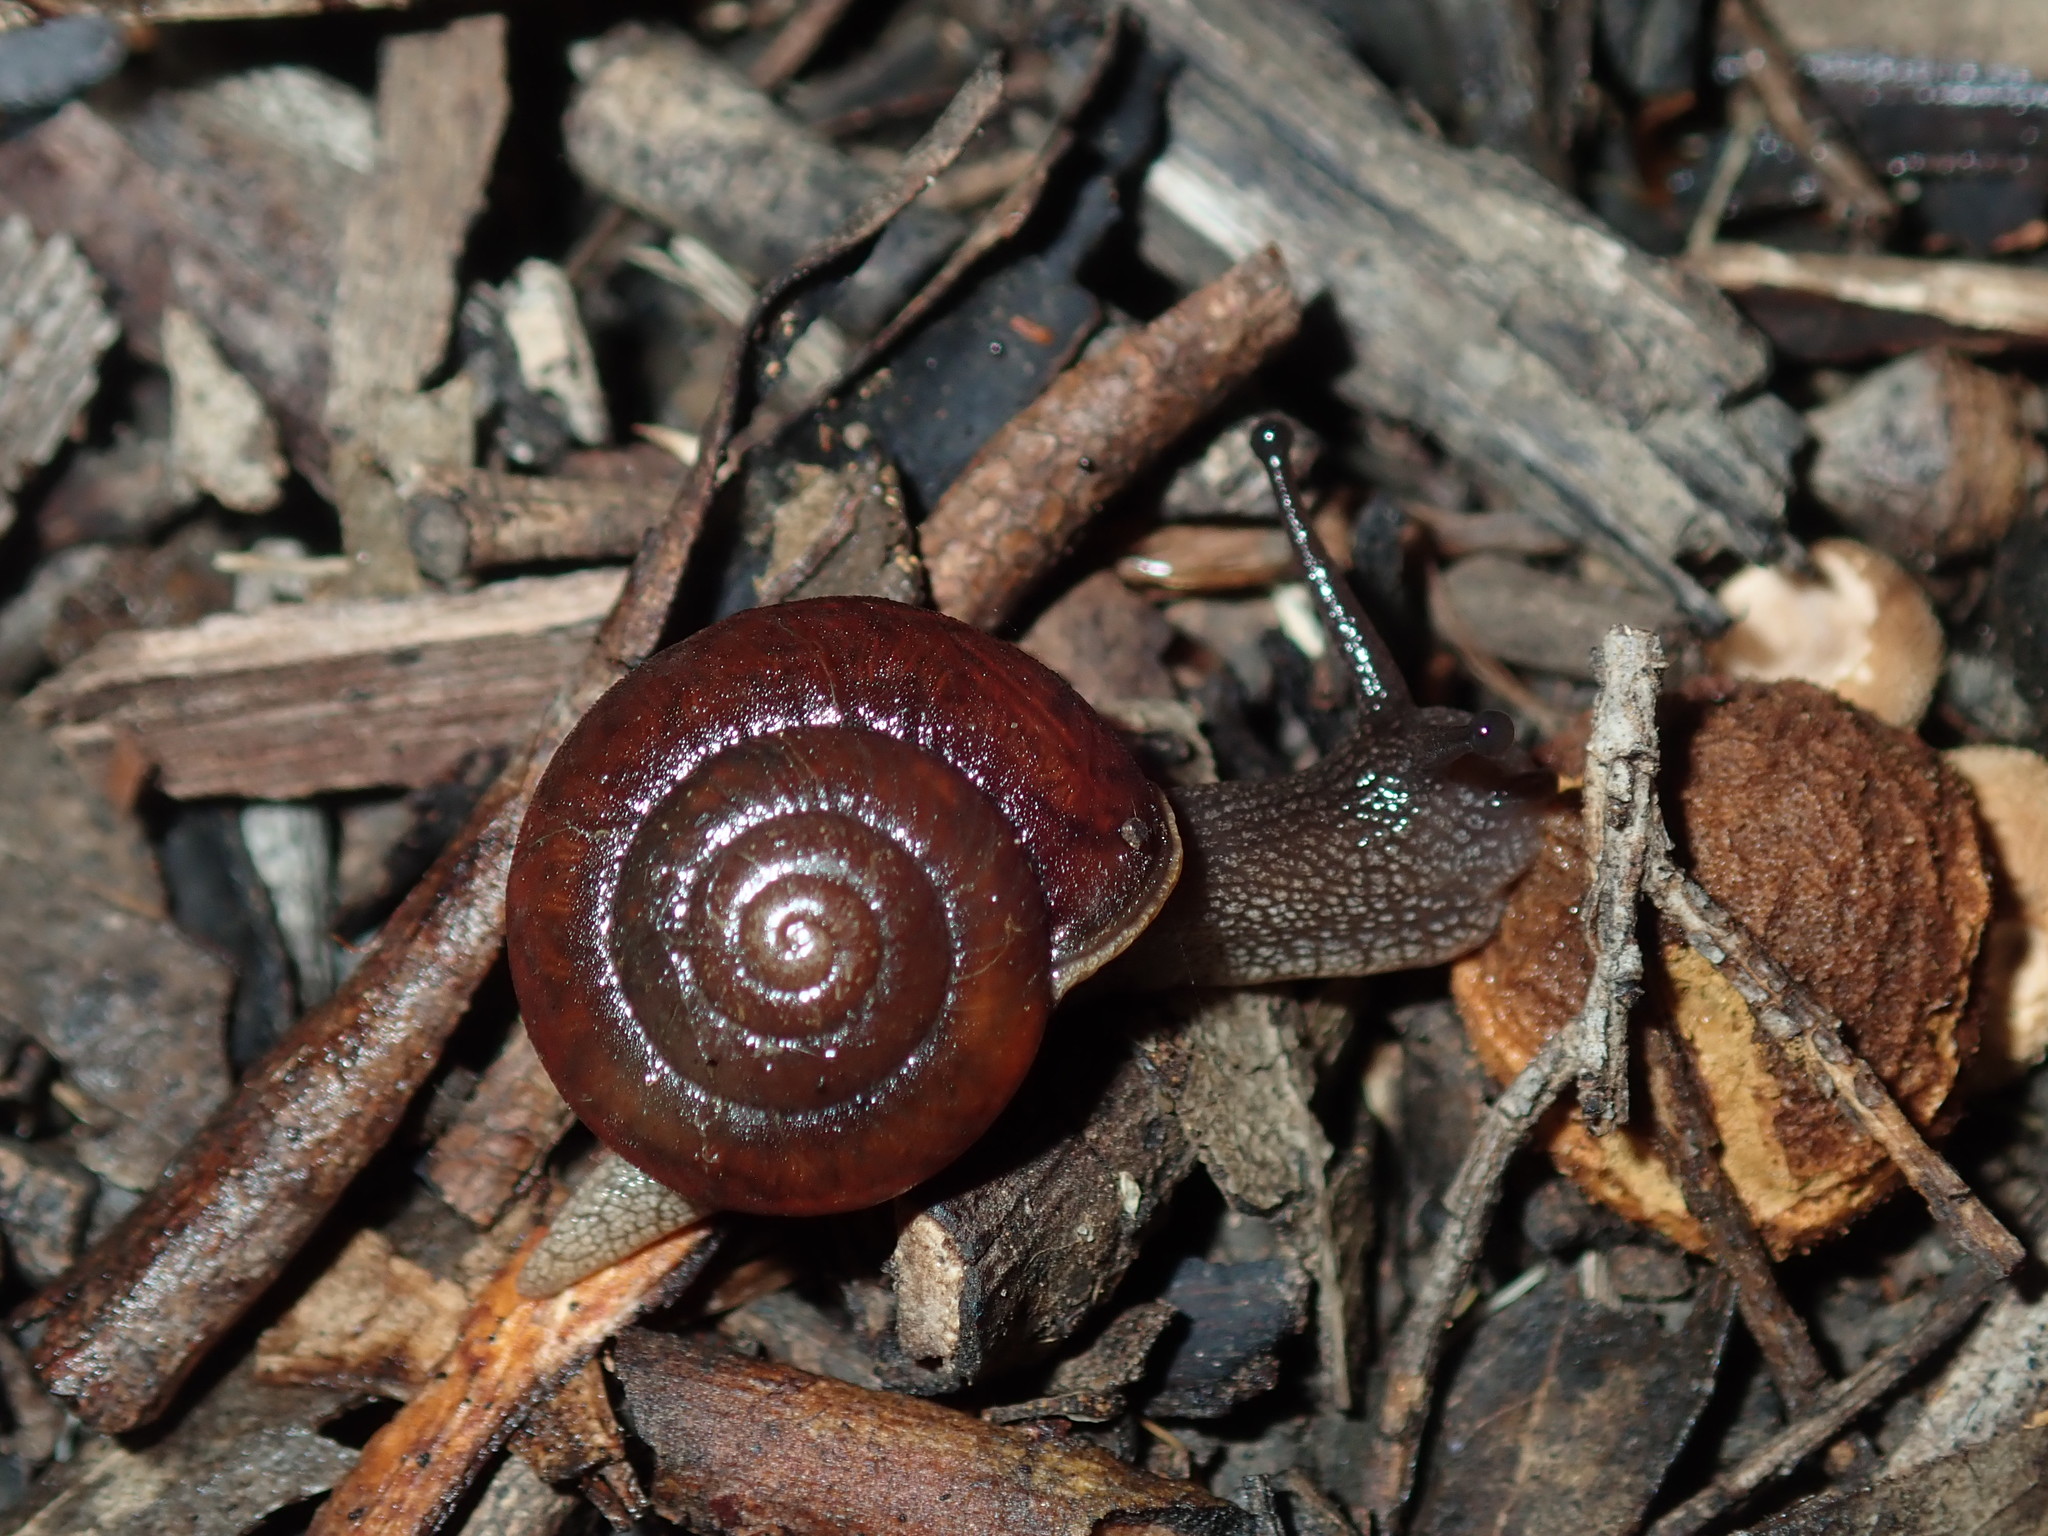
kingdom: Animalia
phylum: Mollusca
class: Gastropoda
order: Stylommatophora
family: Camaenidae
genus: Sauroconcha
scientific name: Sauroconcha sheai
